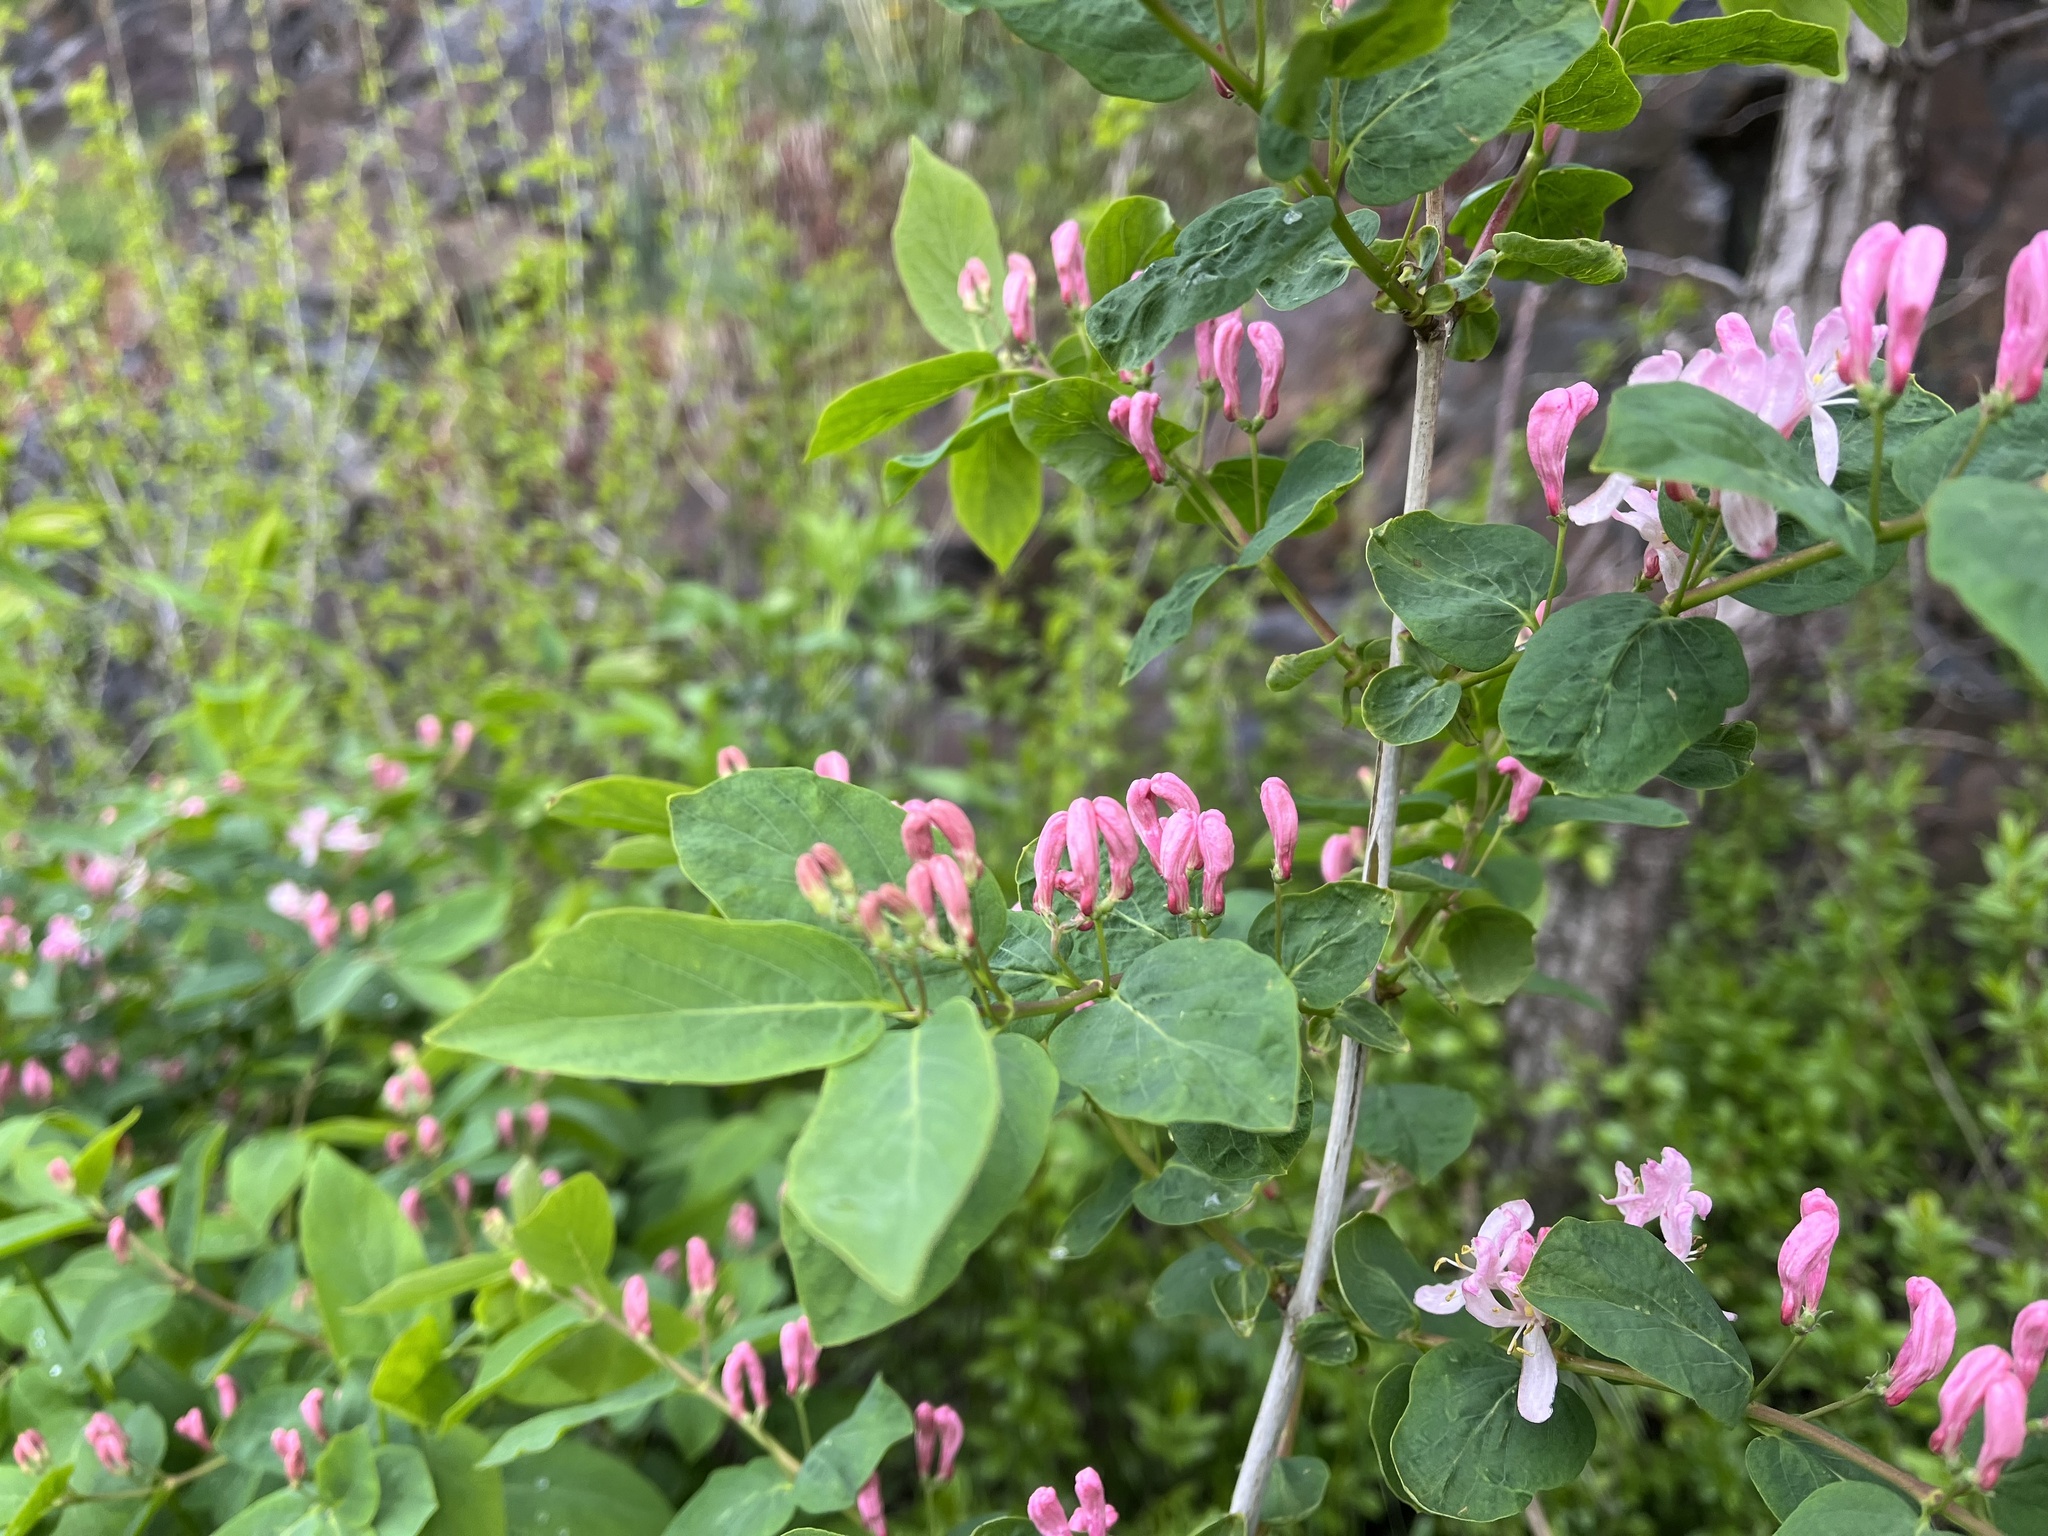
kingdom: Plantae
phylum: Tracheophyta
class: Magnoliopsida
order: Dipsacales
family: Caprifoliaceae
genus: Lonicera
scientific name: Lonicera tatarica
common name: Tatarian honeysuckle
